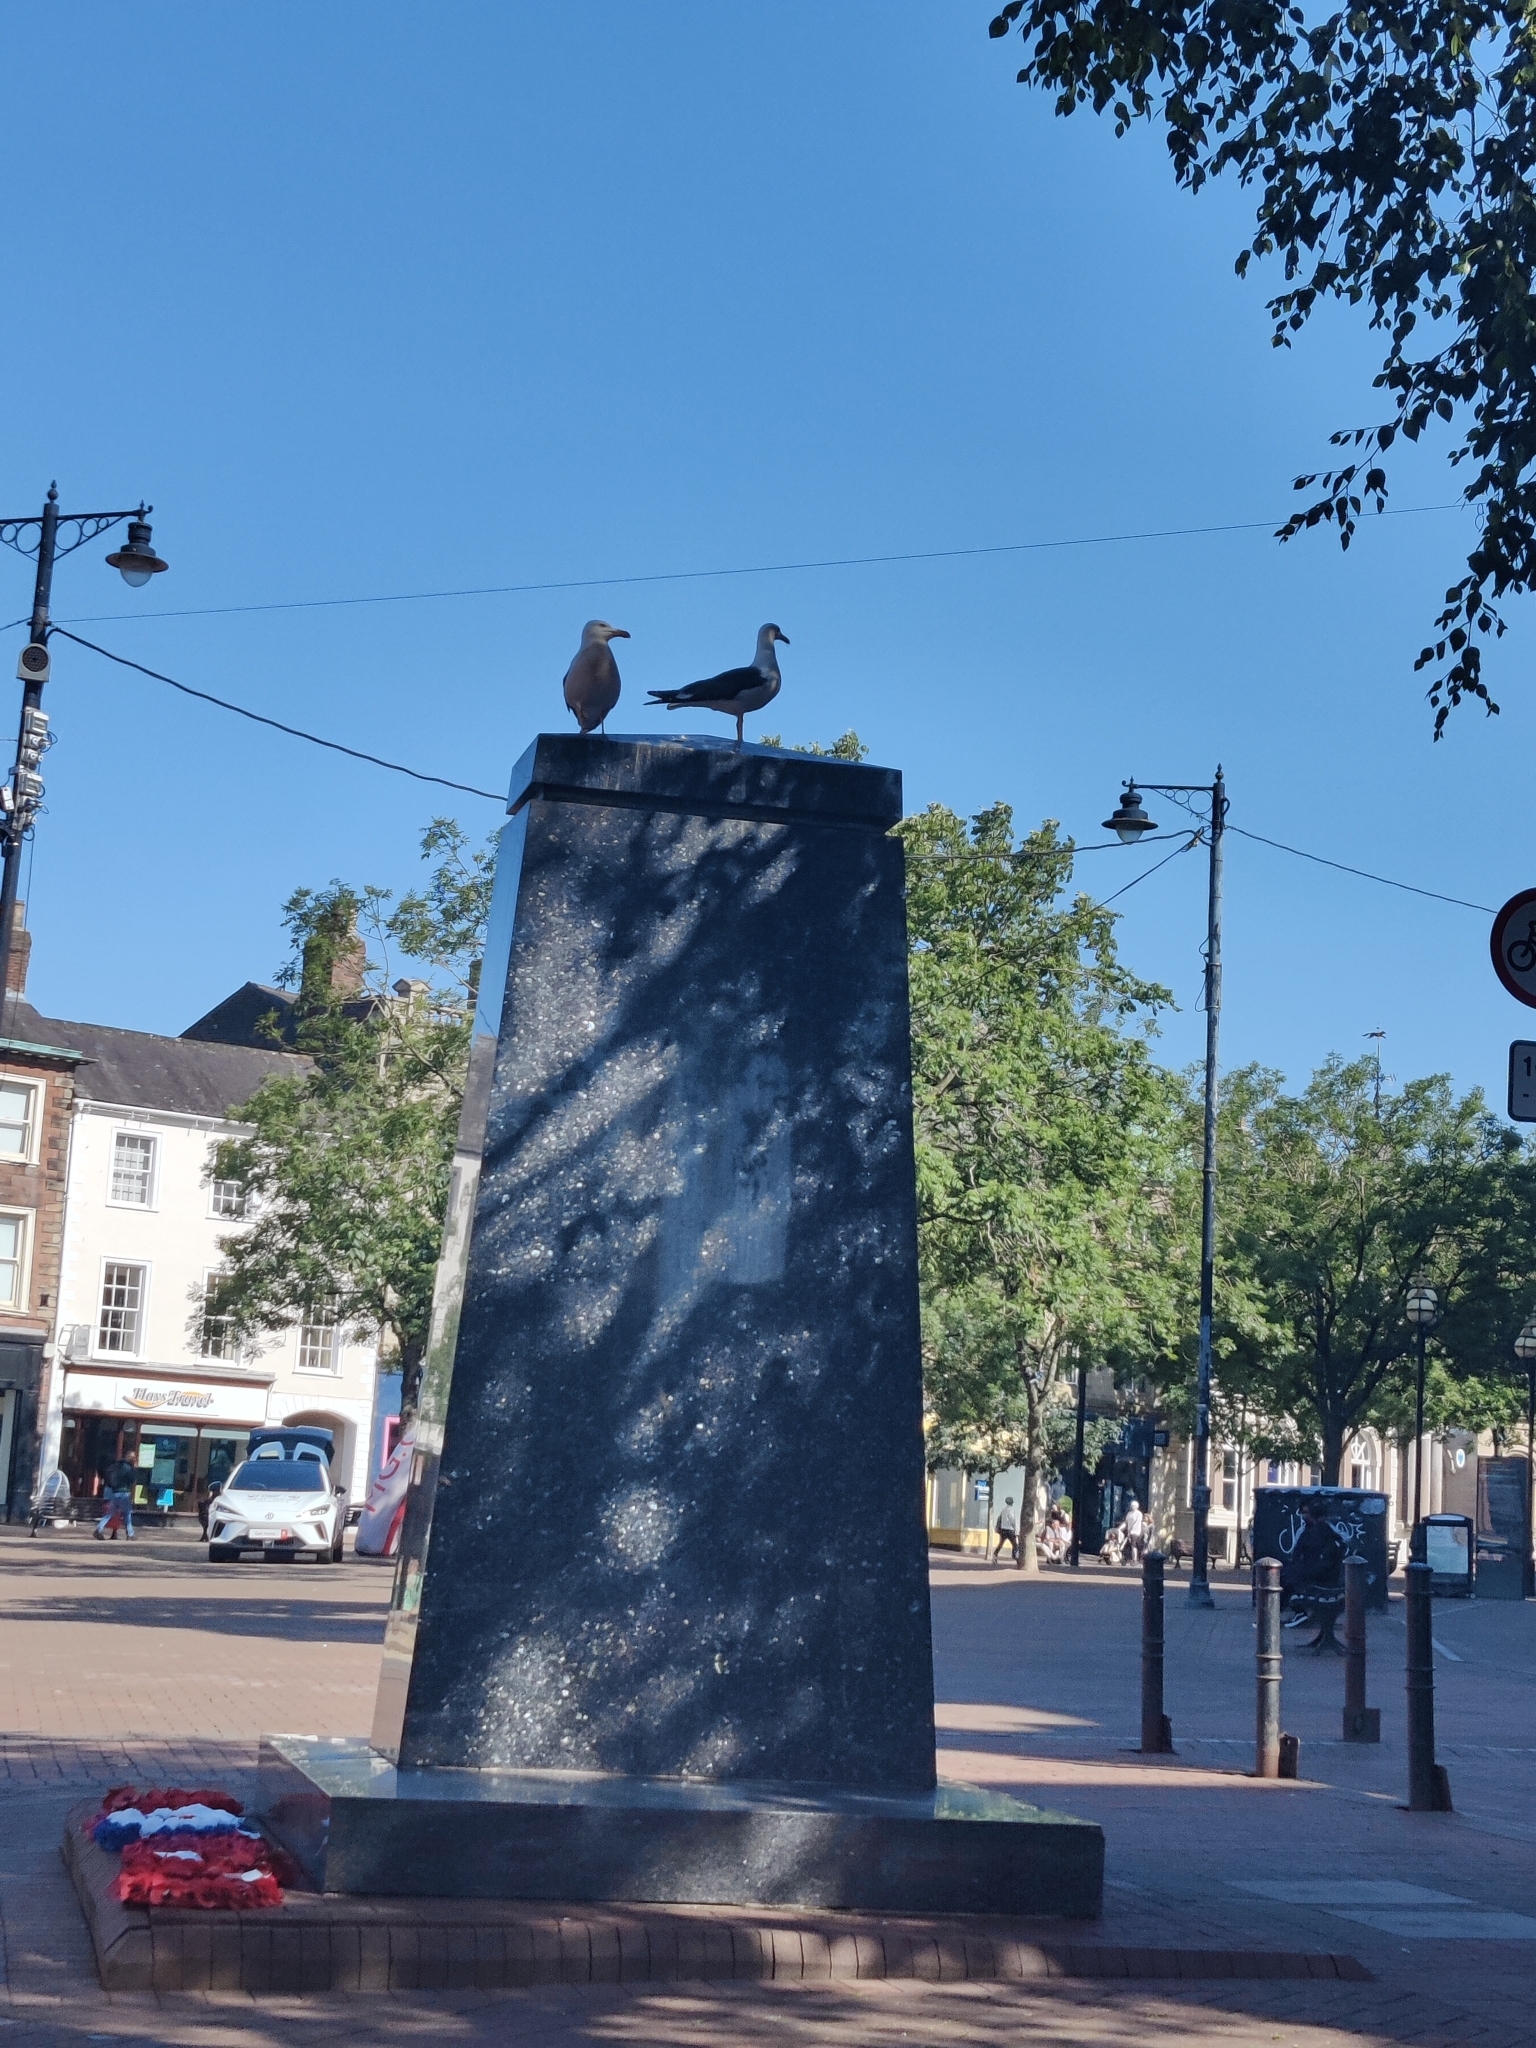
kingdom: Animalia
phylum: Chordata
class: Aves
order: Charadriiformes
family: Laridae
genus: Larus
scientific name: Larus fuscus
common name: Lesser black-backed gull
